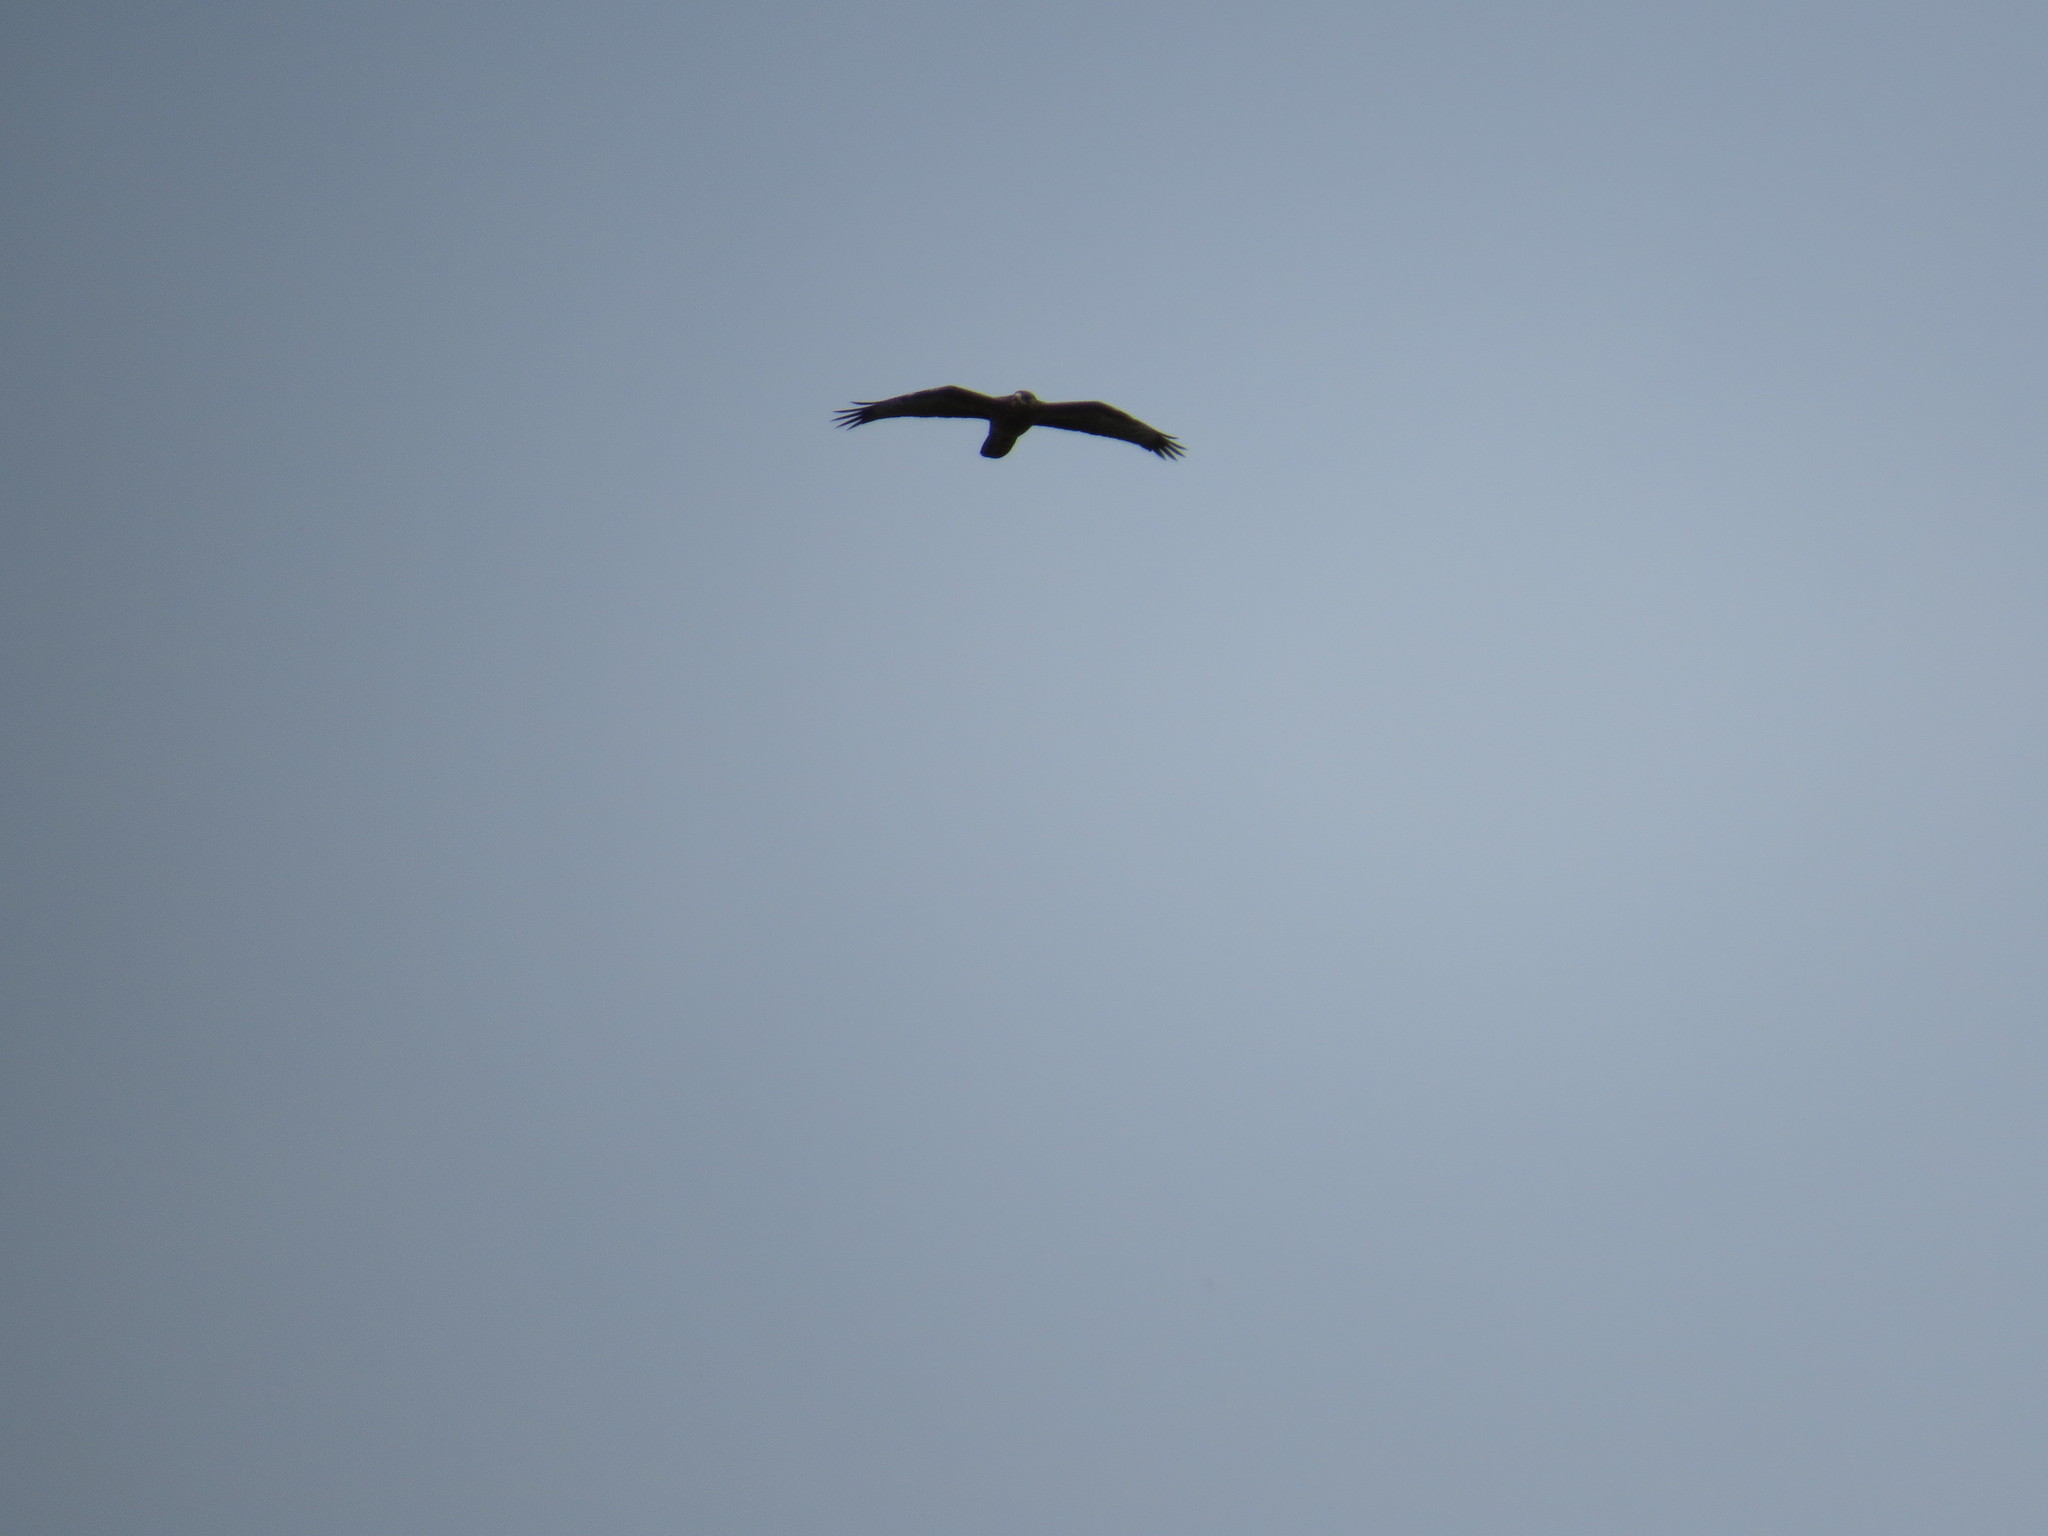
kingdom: Animalia
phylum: Chordata
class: Aves
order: Accipitriformes
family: Accipitridae
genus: Buteo
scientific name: Buteo buteo
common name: Common buzzard
